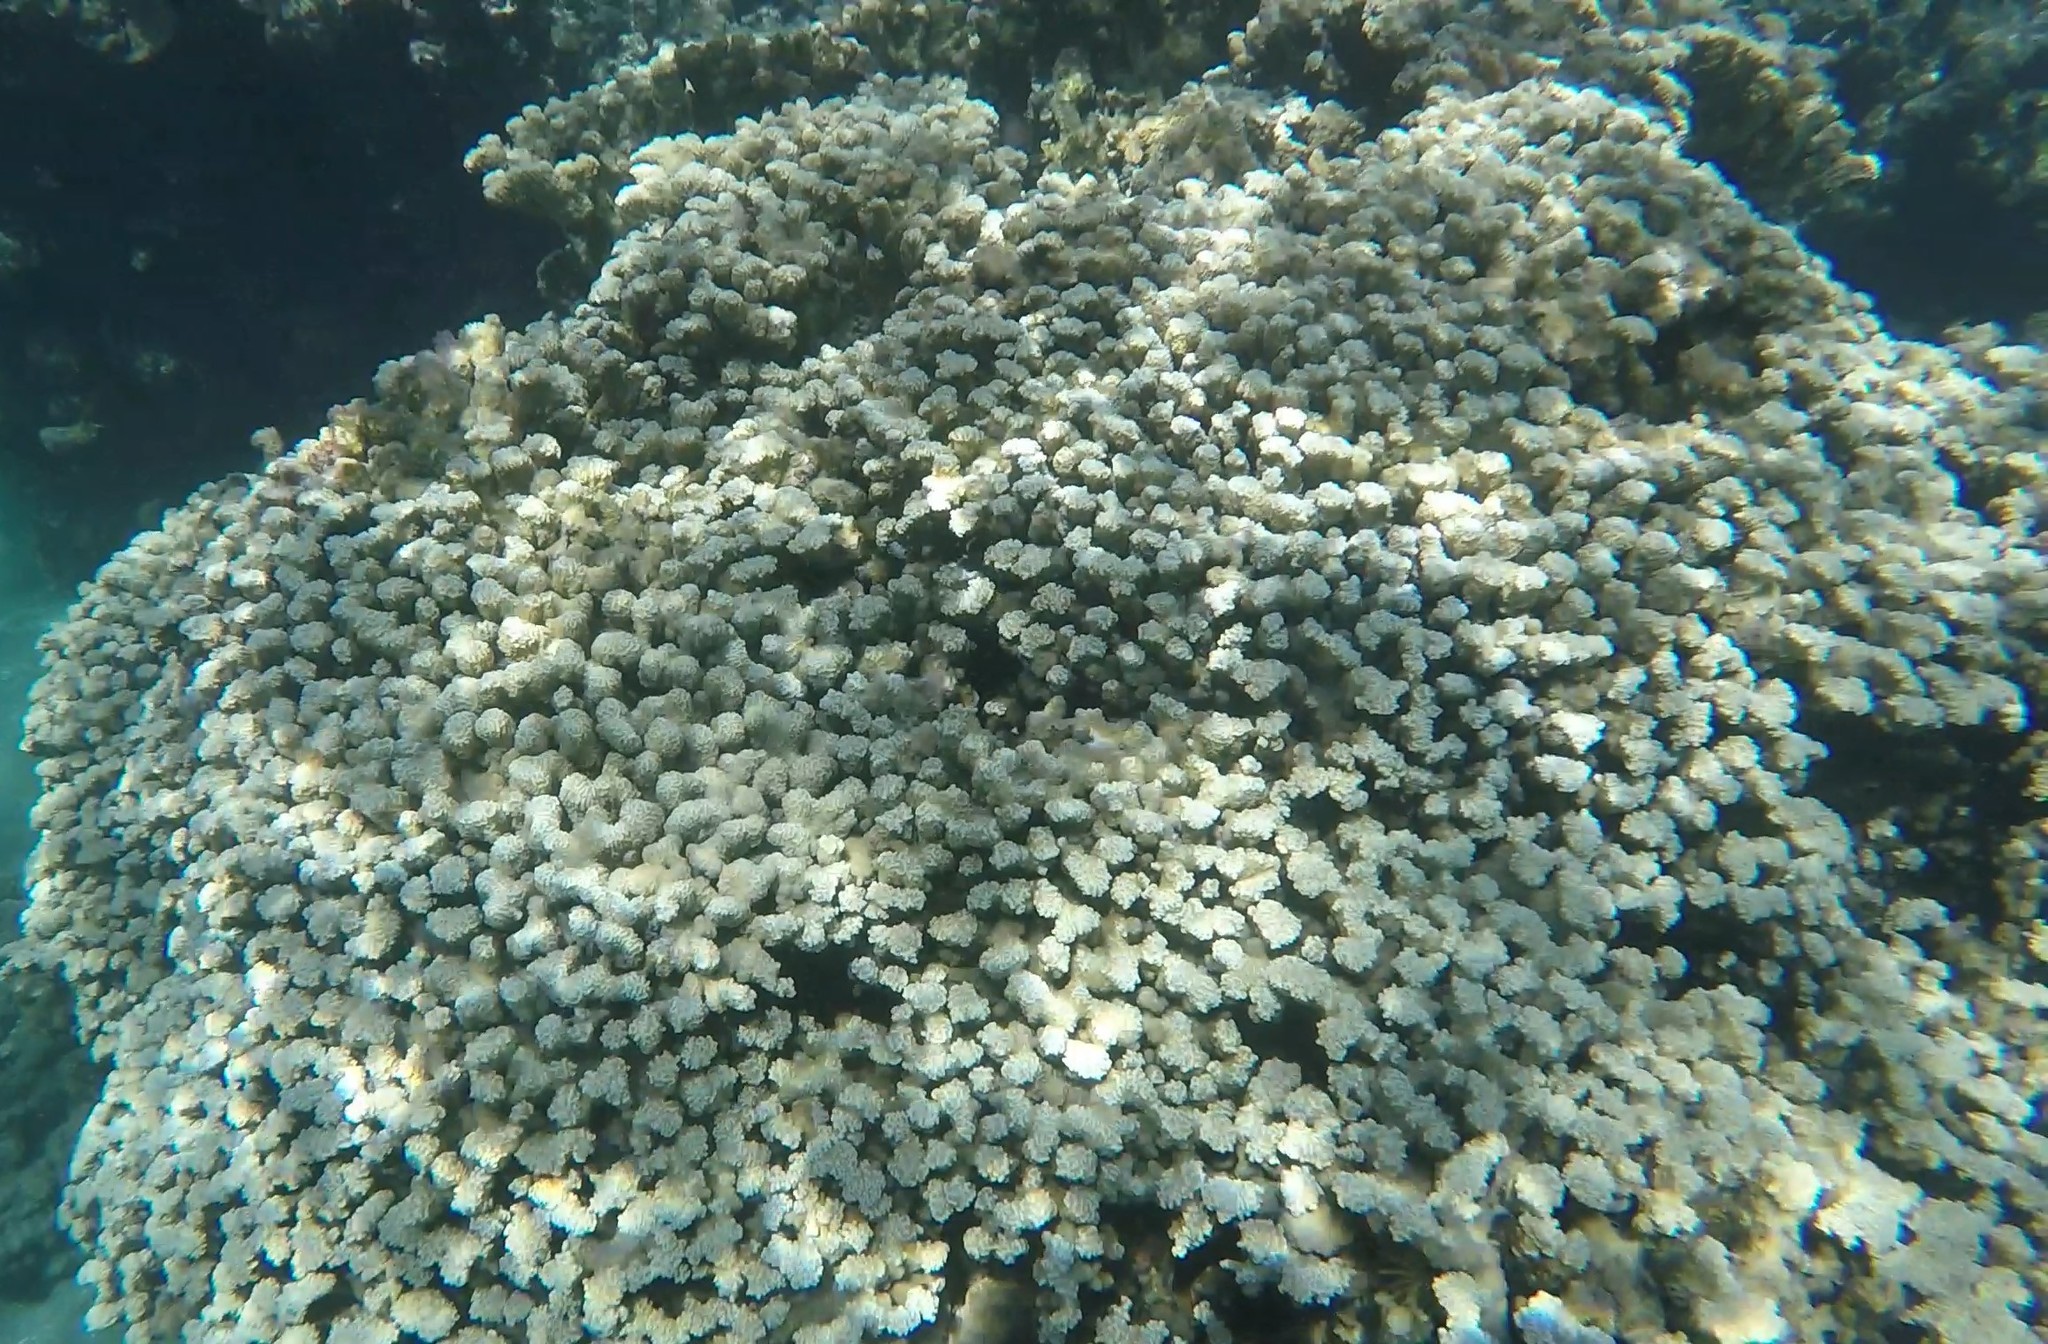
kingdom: Animalia
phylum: Cnidaria
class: Anthozoa
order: Scleractinia
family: Poritidae
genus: Porites
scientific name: Porites rus
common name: Hump coral
